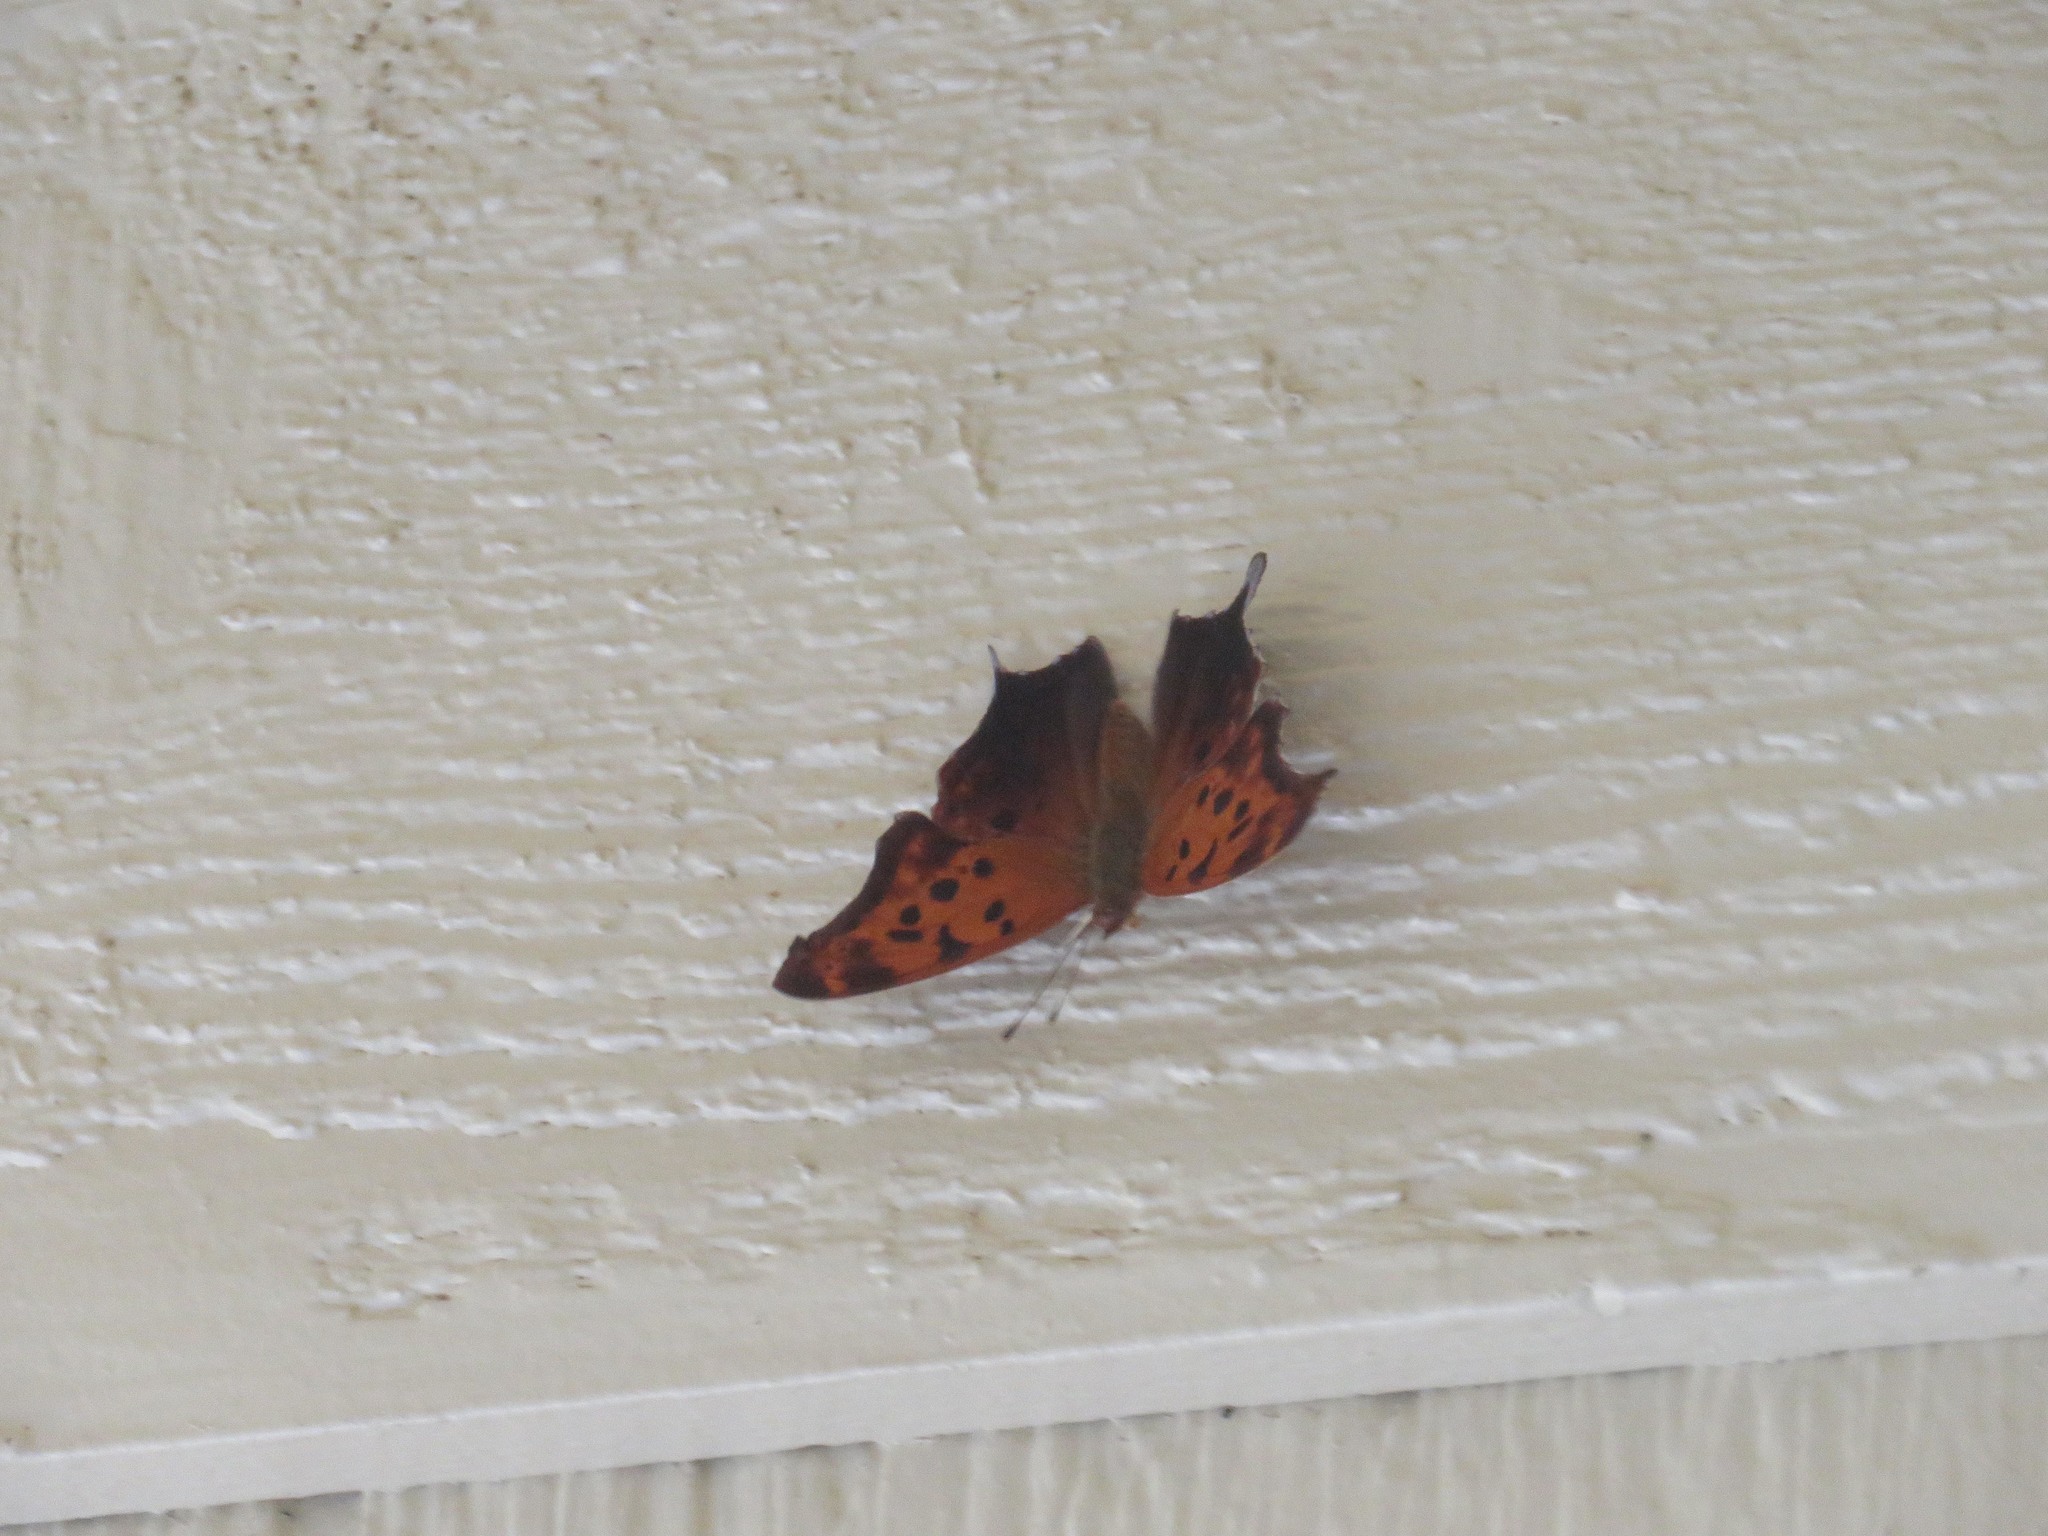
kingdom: Animalia
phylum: Arthropoda
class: Insecta
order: Lepidoptera
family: Nymphalidae
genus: Polygonia
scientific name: Polygonia interrogationis
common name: Question mark
